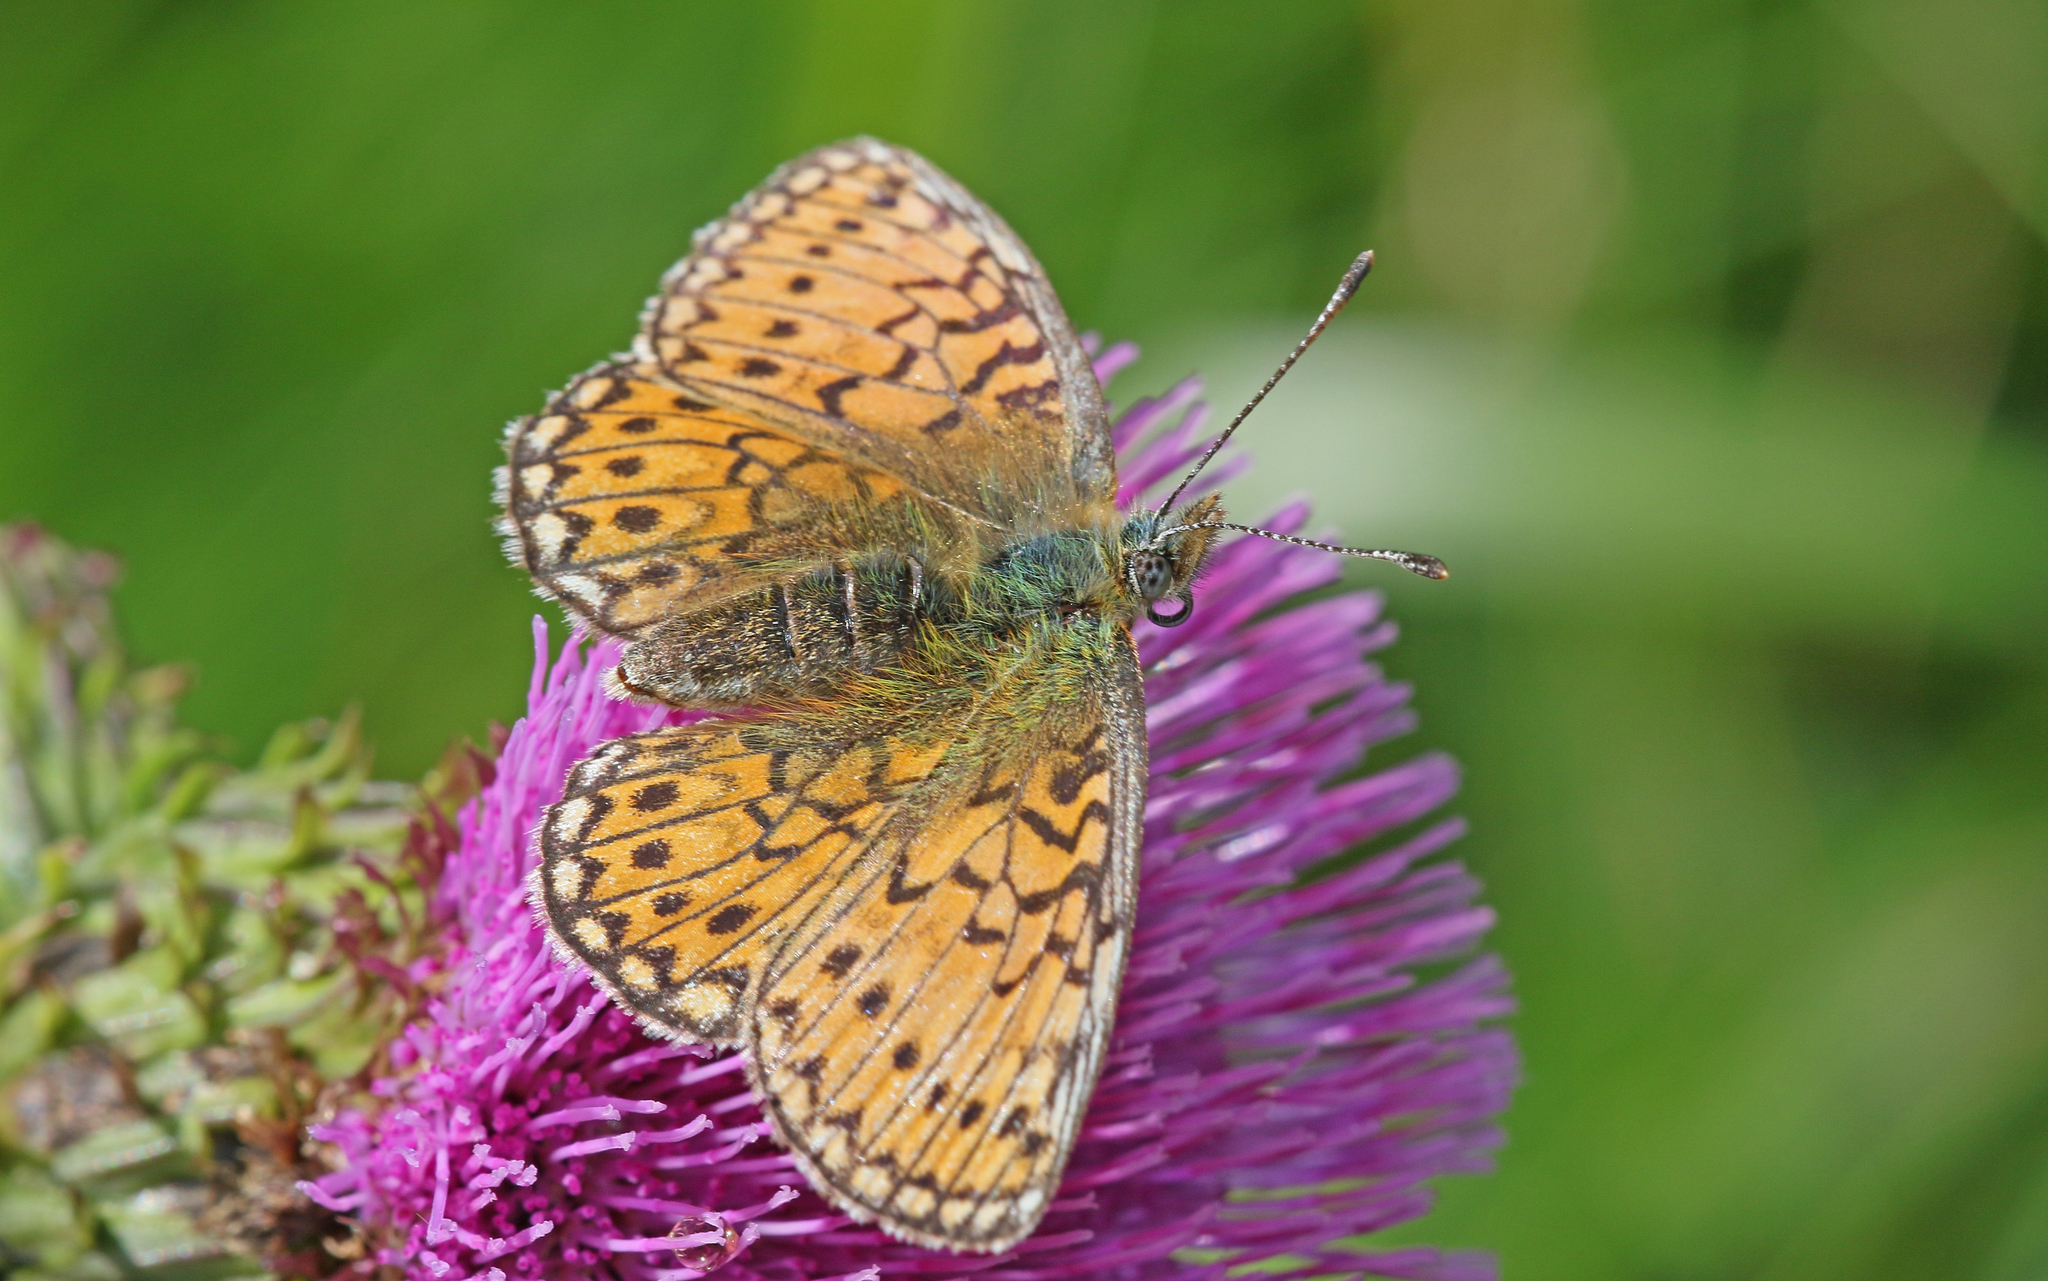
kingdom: Animalia
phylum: Arthropoda
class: Insecta
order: Lepidoptera
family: Nymphalidae
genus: Boloria
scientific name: Boloria eunomia
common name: Bog fritillary
